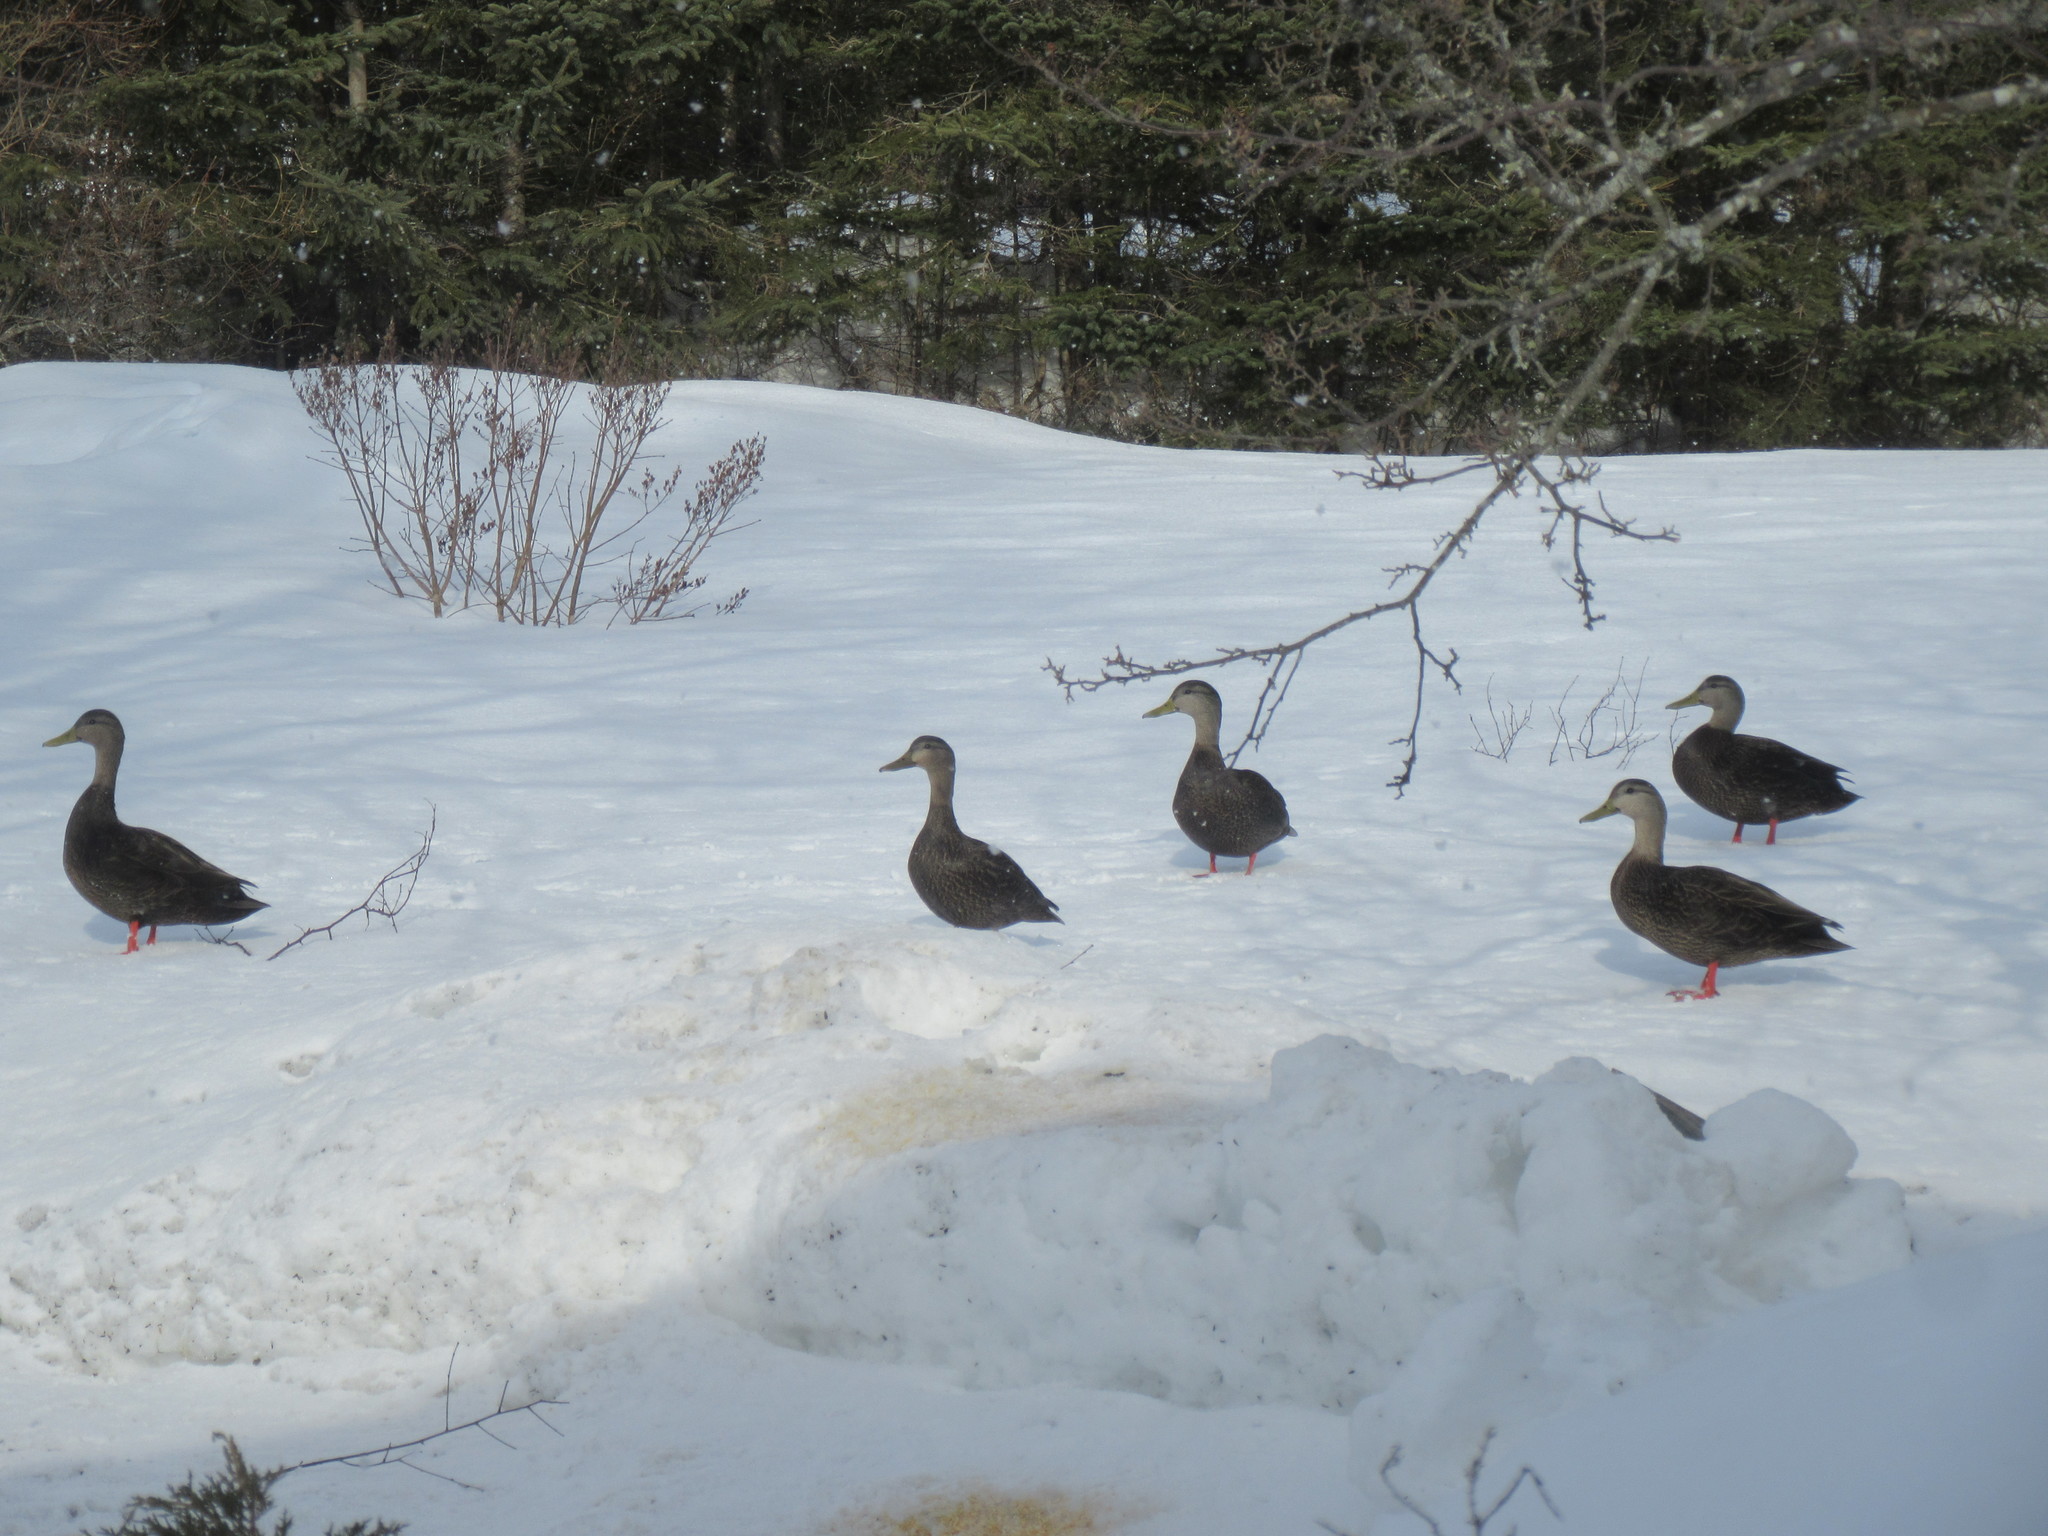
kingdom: Animalia
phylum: Chordata
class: Aves
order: Anseriformes
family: Anatidae
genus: Anas
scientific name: Anas rubripes
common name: American black duck
